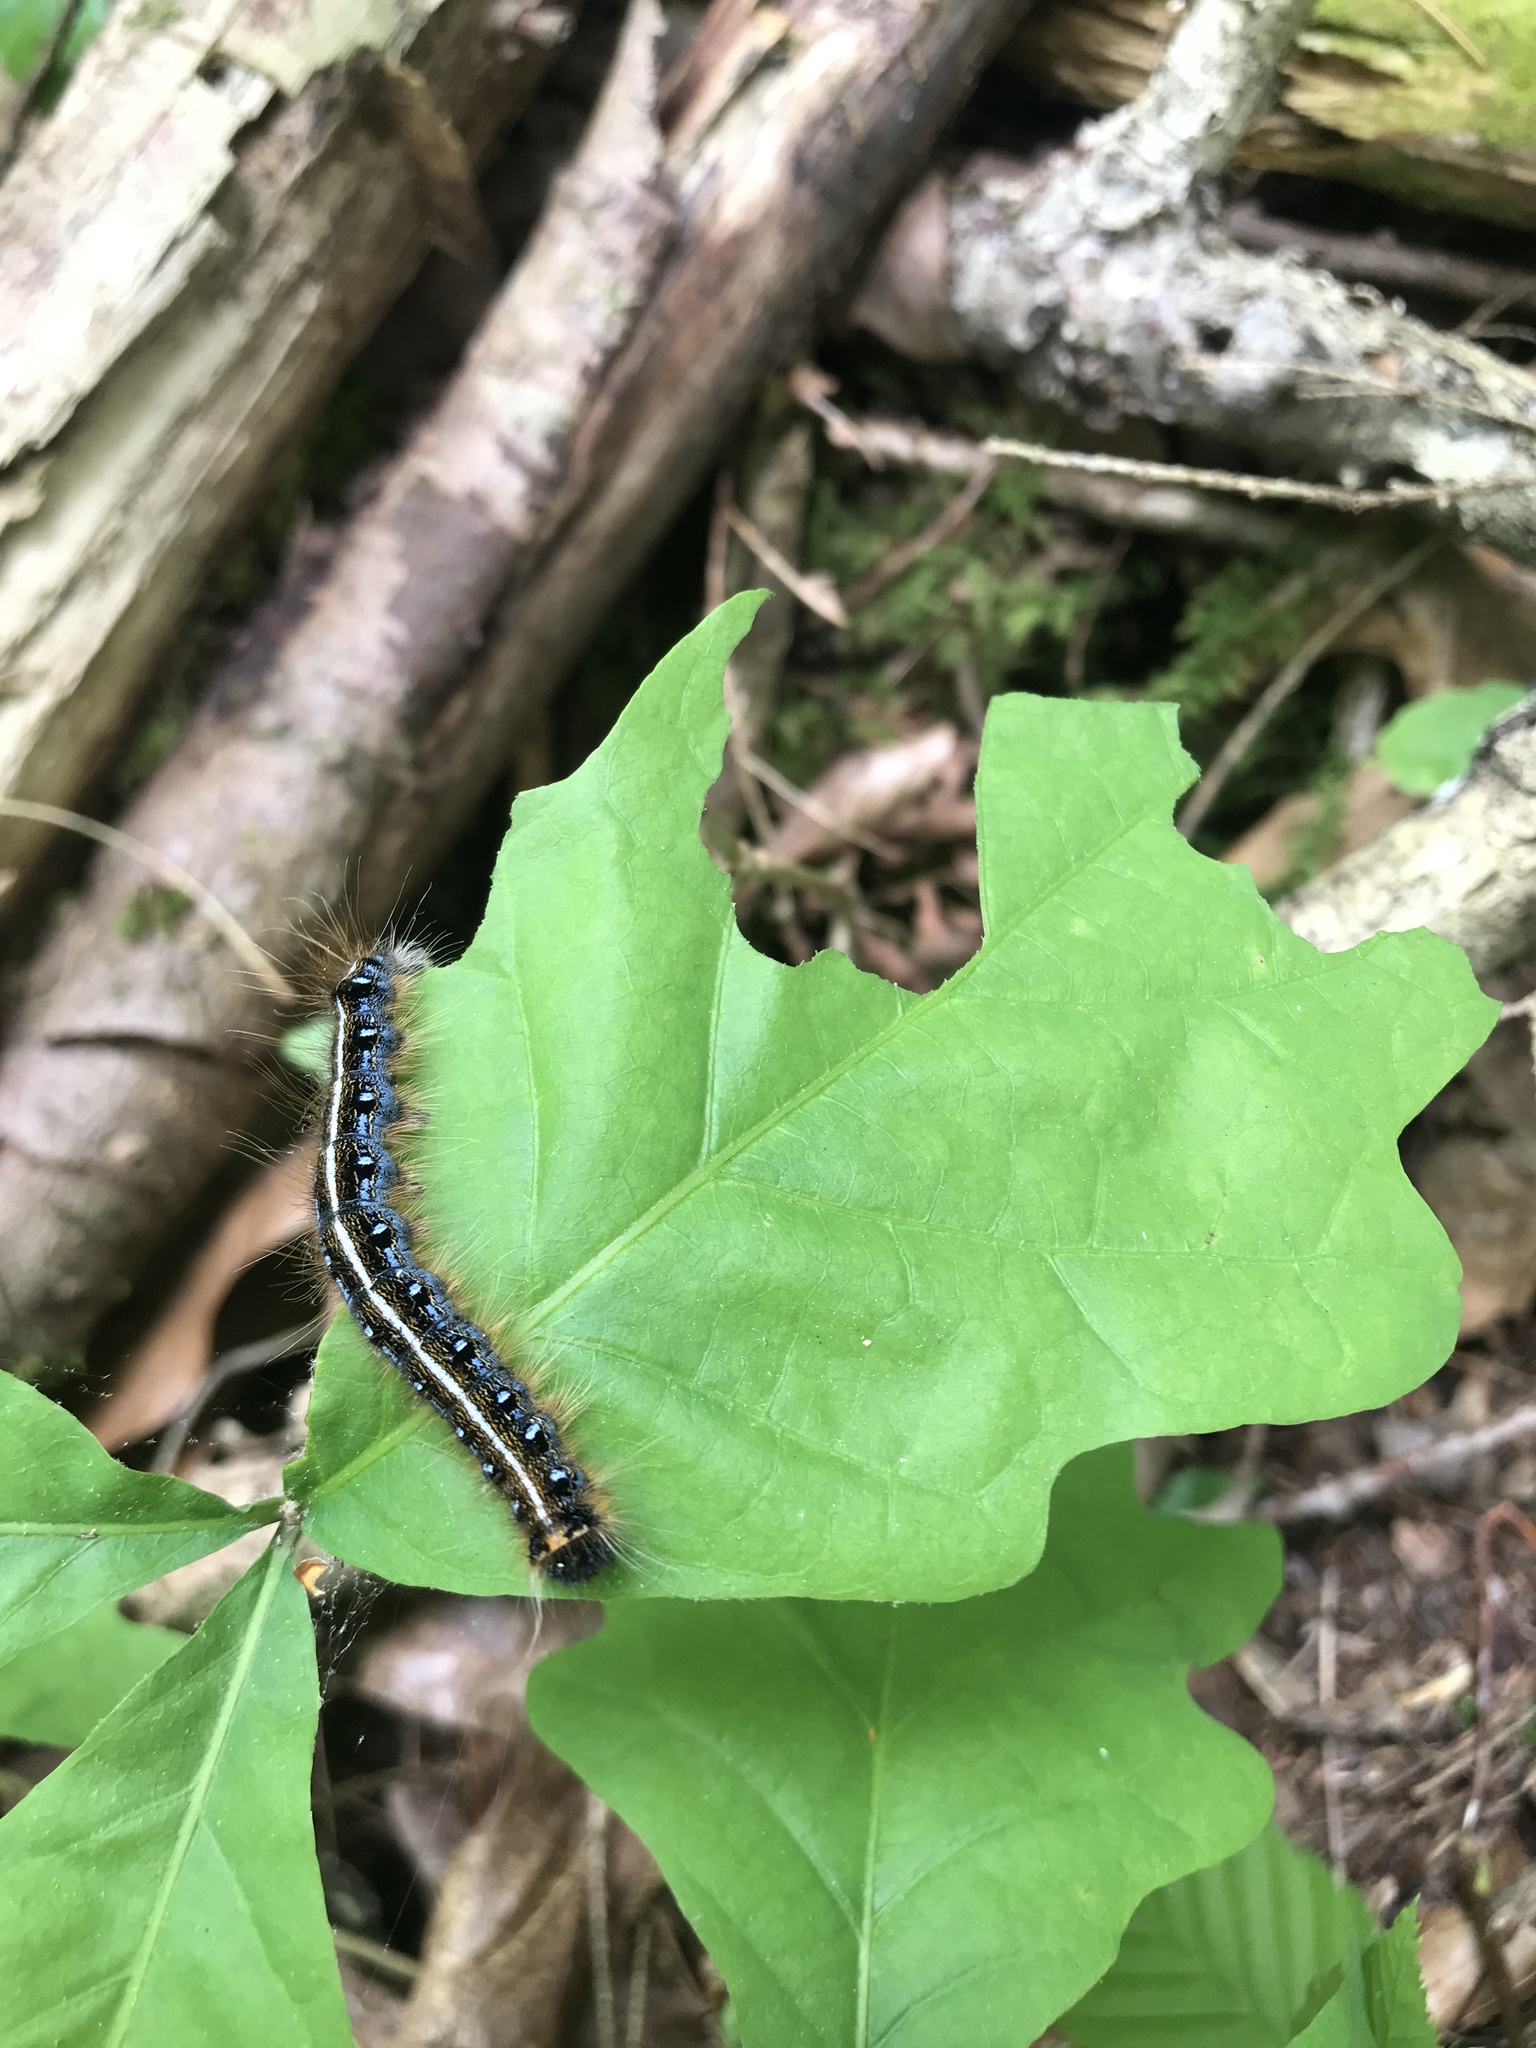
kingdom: Animalia
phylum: Arthropoda
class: Insecta
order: Lepidoptera
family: Lasiocampidae
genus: Malacosoma
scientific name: Malacosoma americana
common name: Eastern tent caterpillar moth
